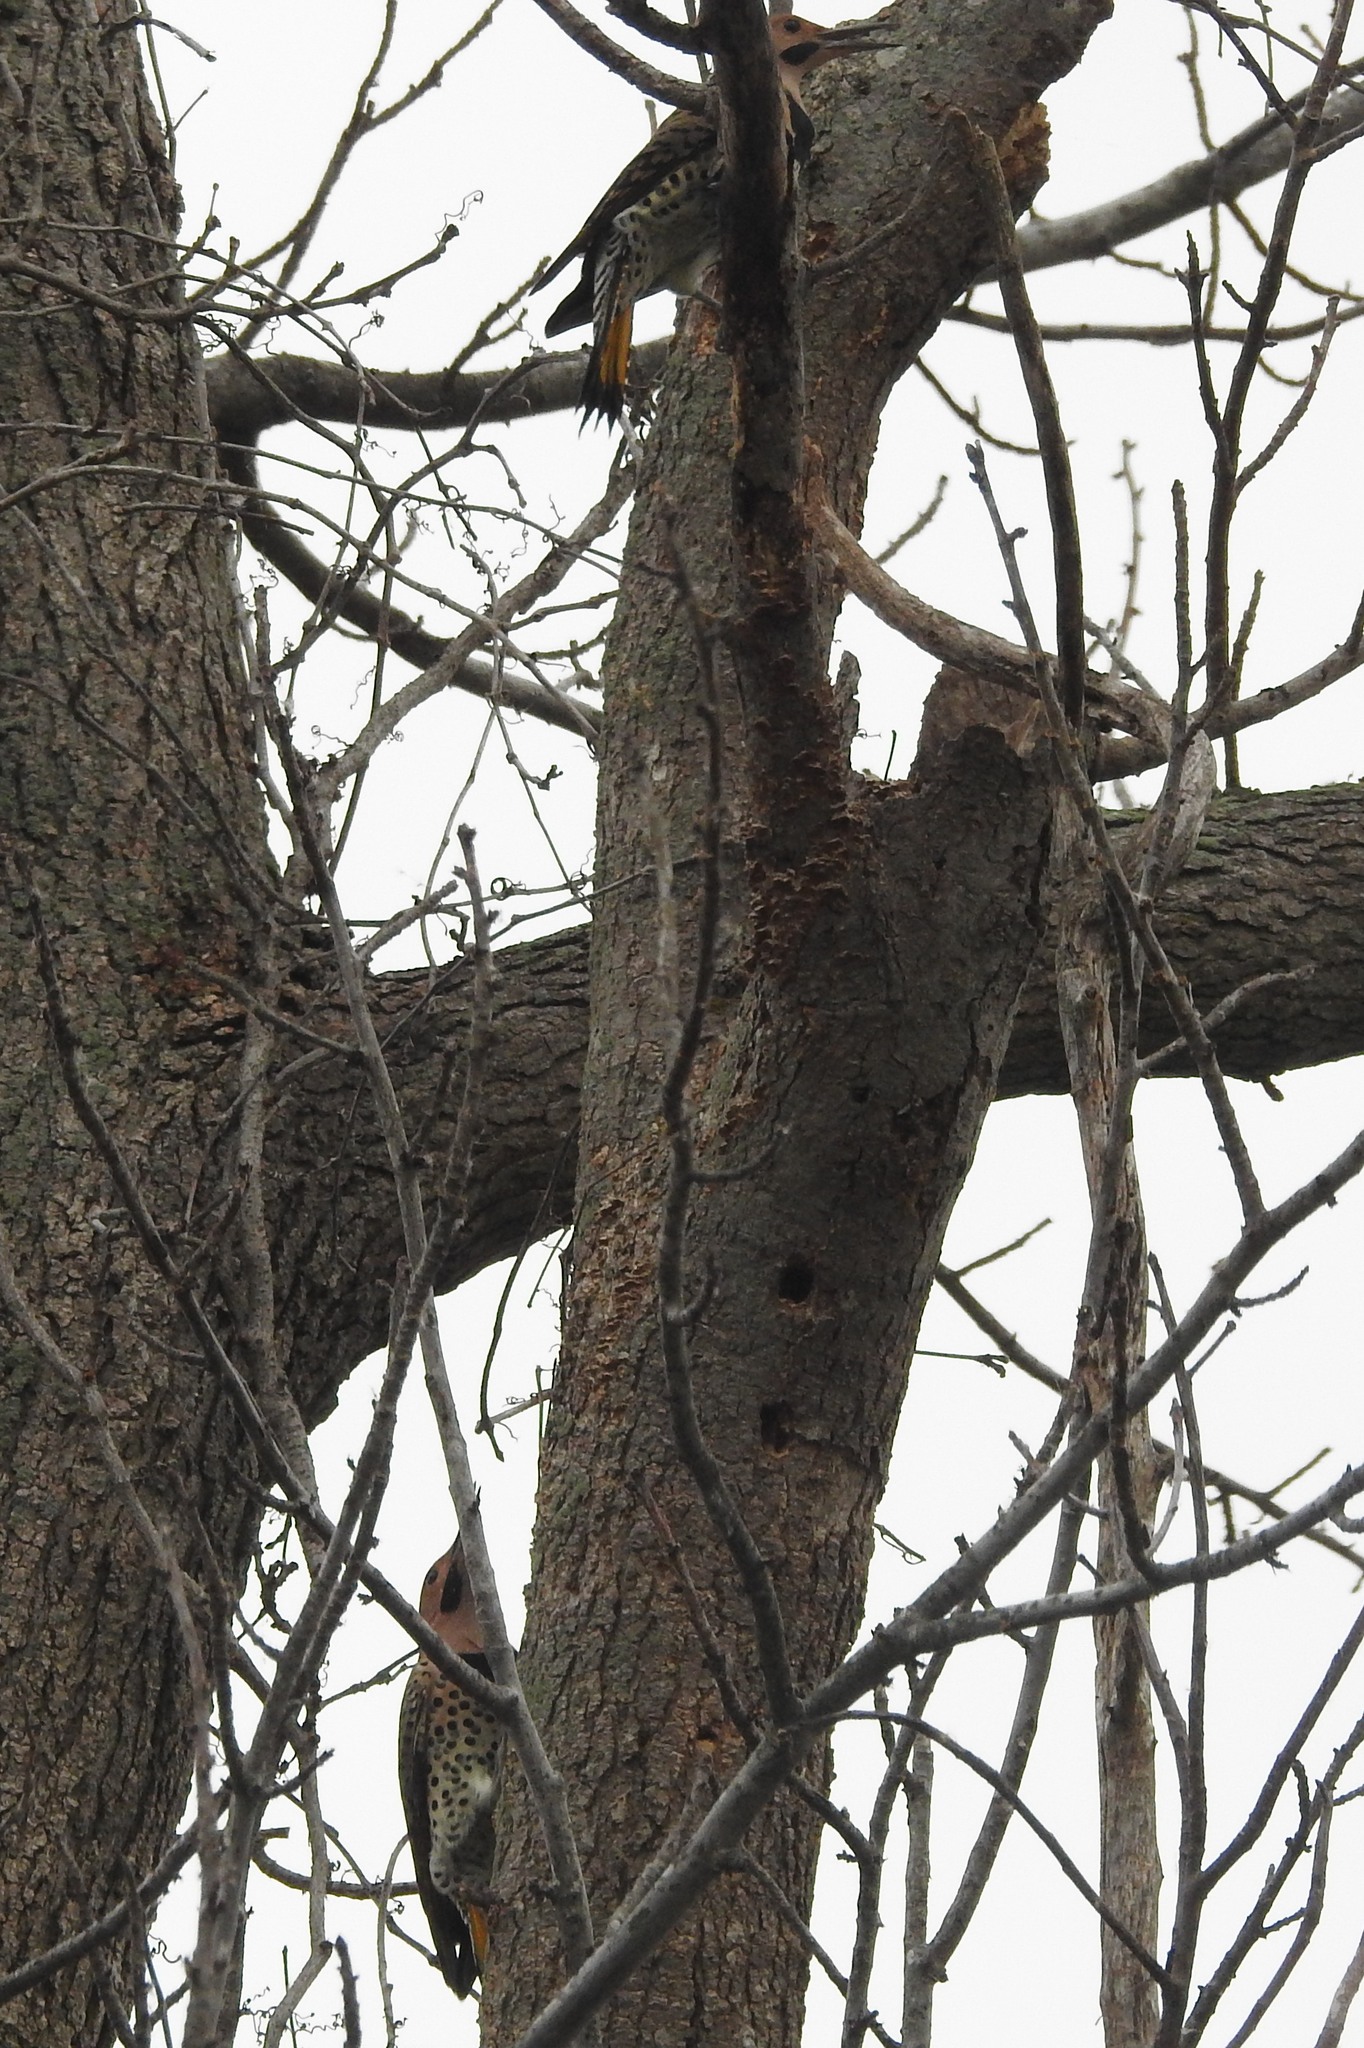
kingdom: Animalia
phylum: Chordata
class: Aves
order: Piciformes
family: Picidae
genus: Colaptes
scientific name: Colaptes auratus
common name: Northern flicker
